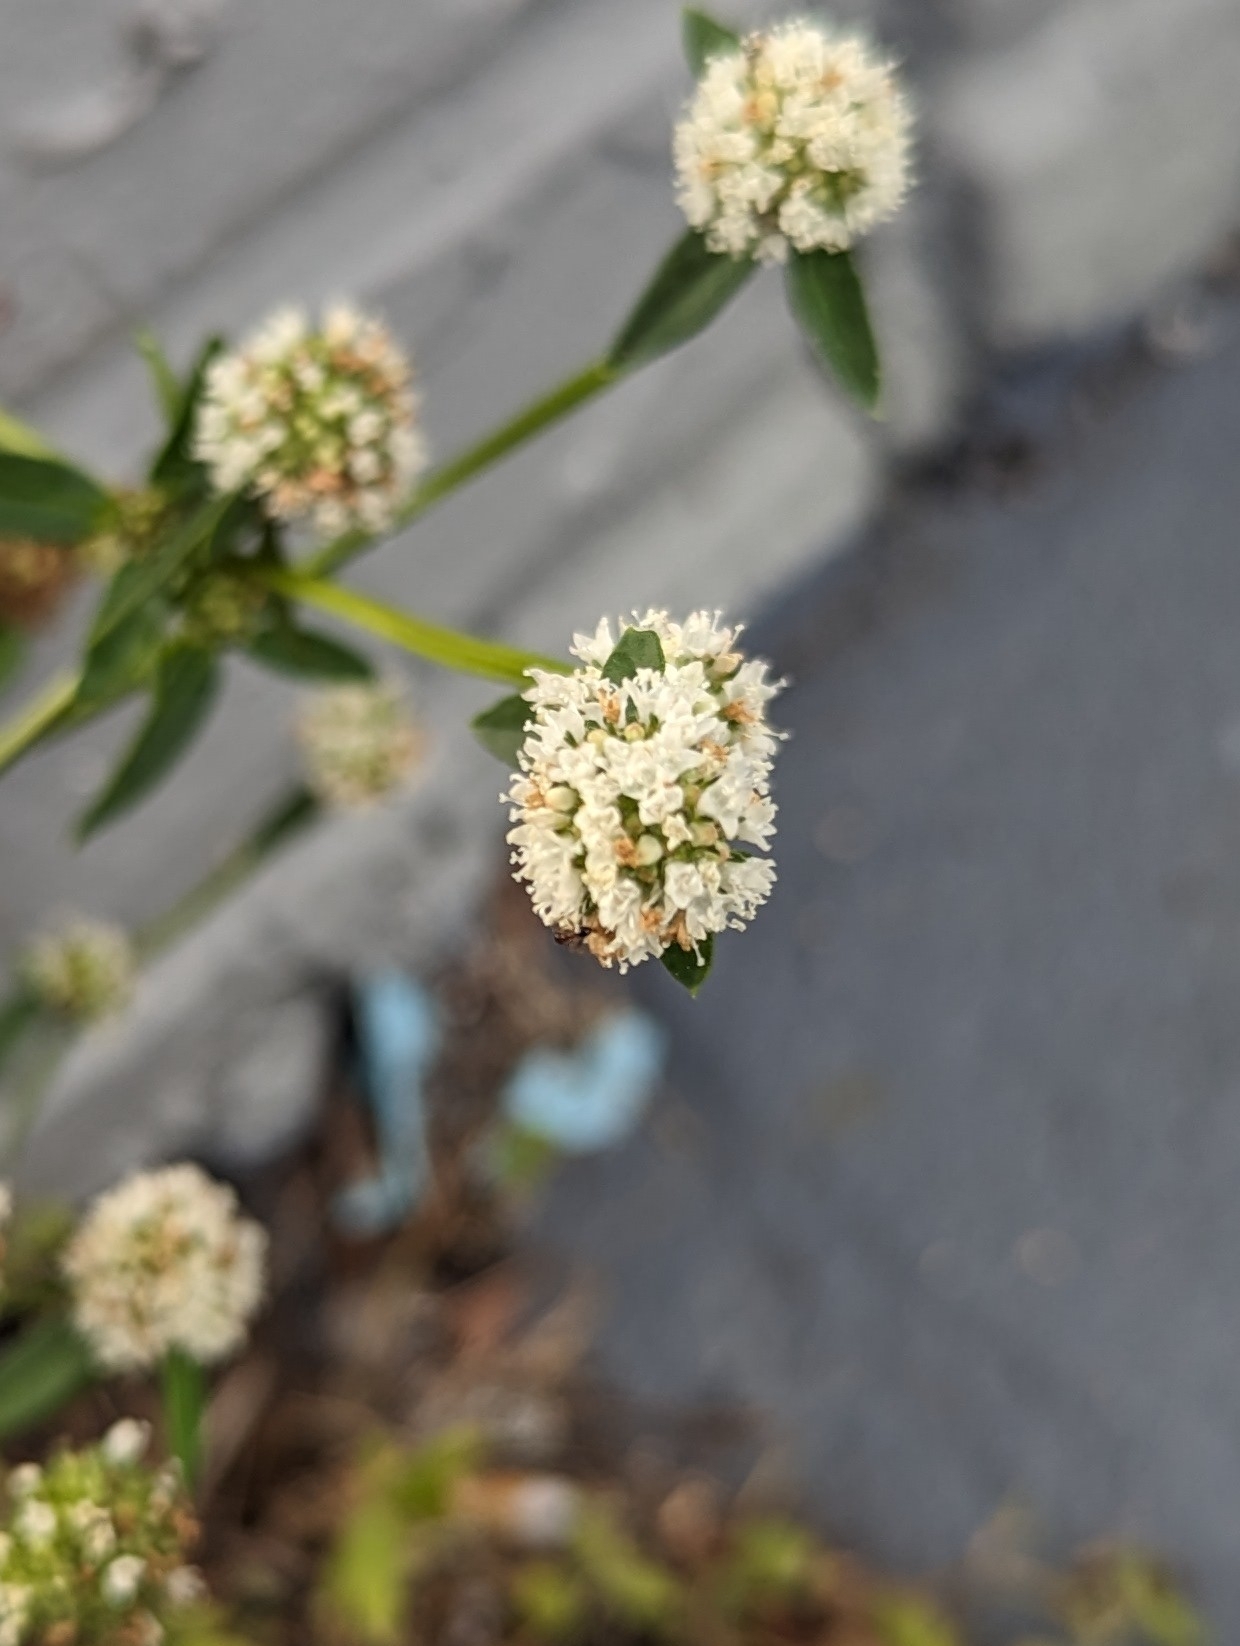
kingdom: Plantae
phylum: Tracheophyta
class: Magnoliopsida
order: Gentianales
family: Rubiaceae
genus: Spermacoce
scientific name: Spermacoce verticillata
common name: Shrubby false buttonweed
